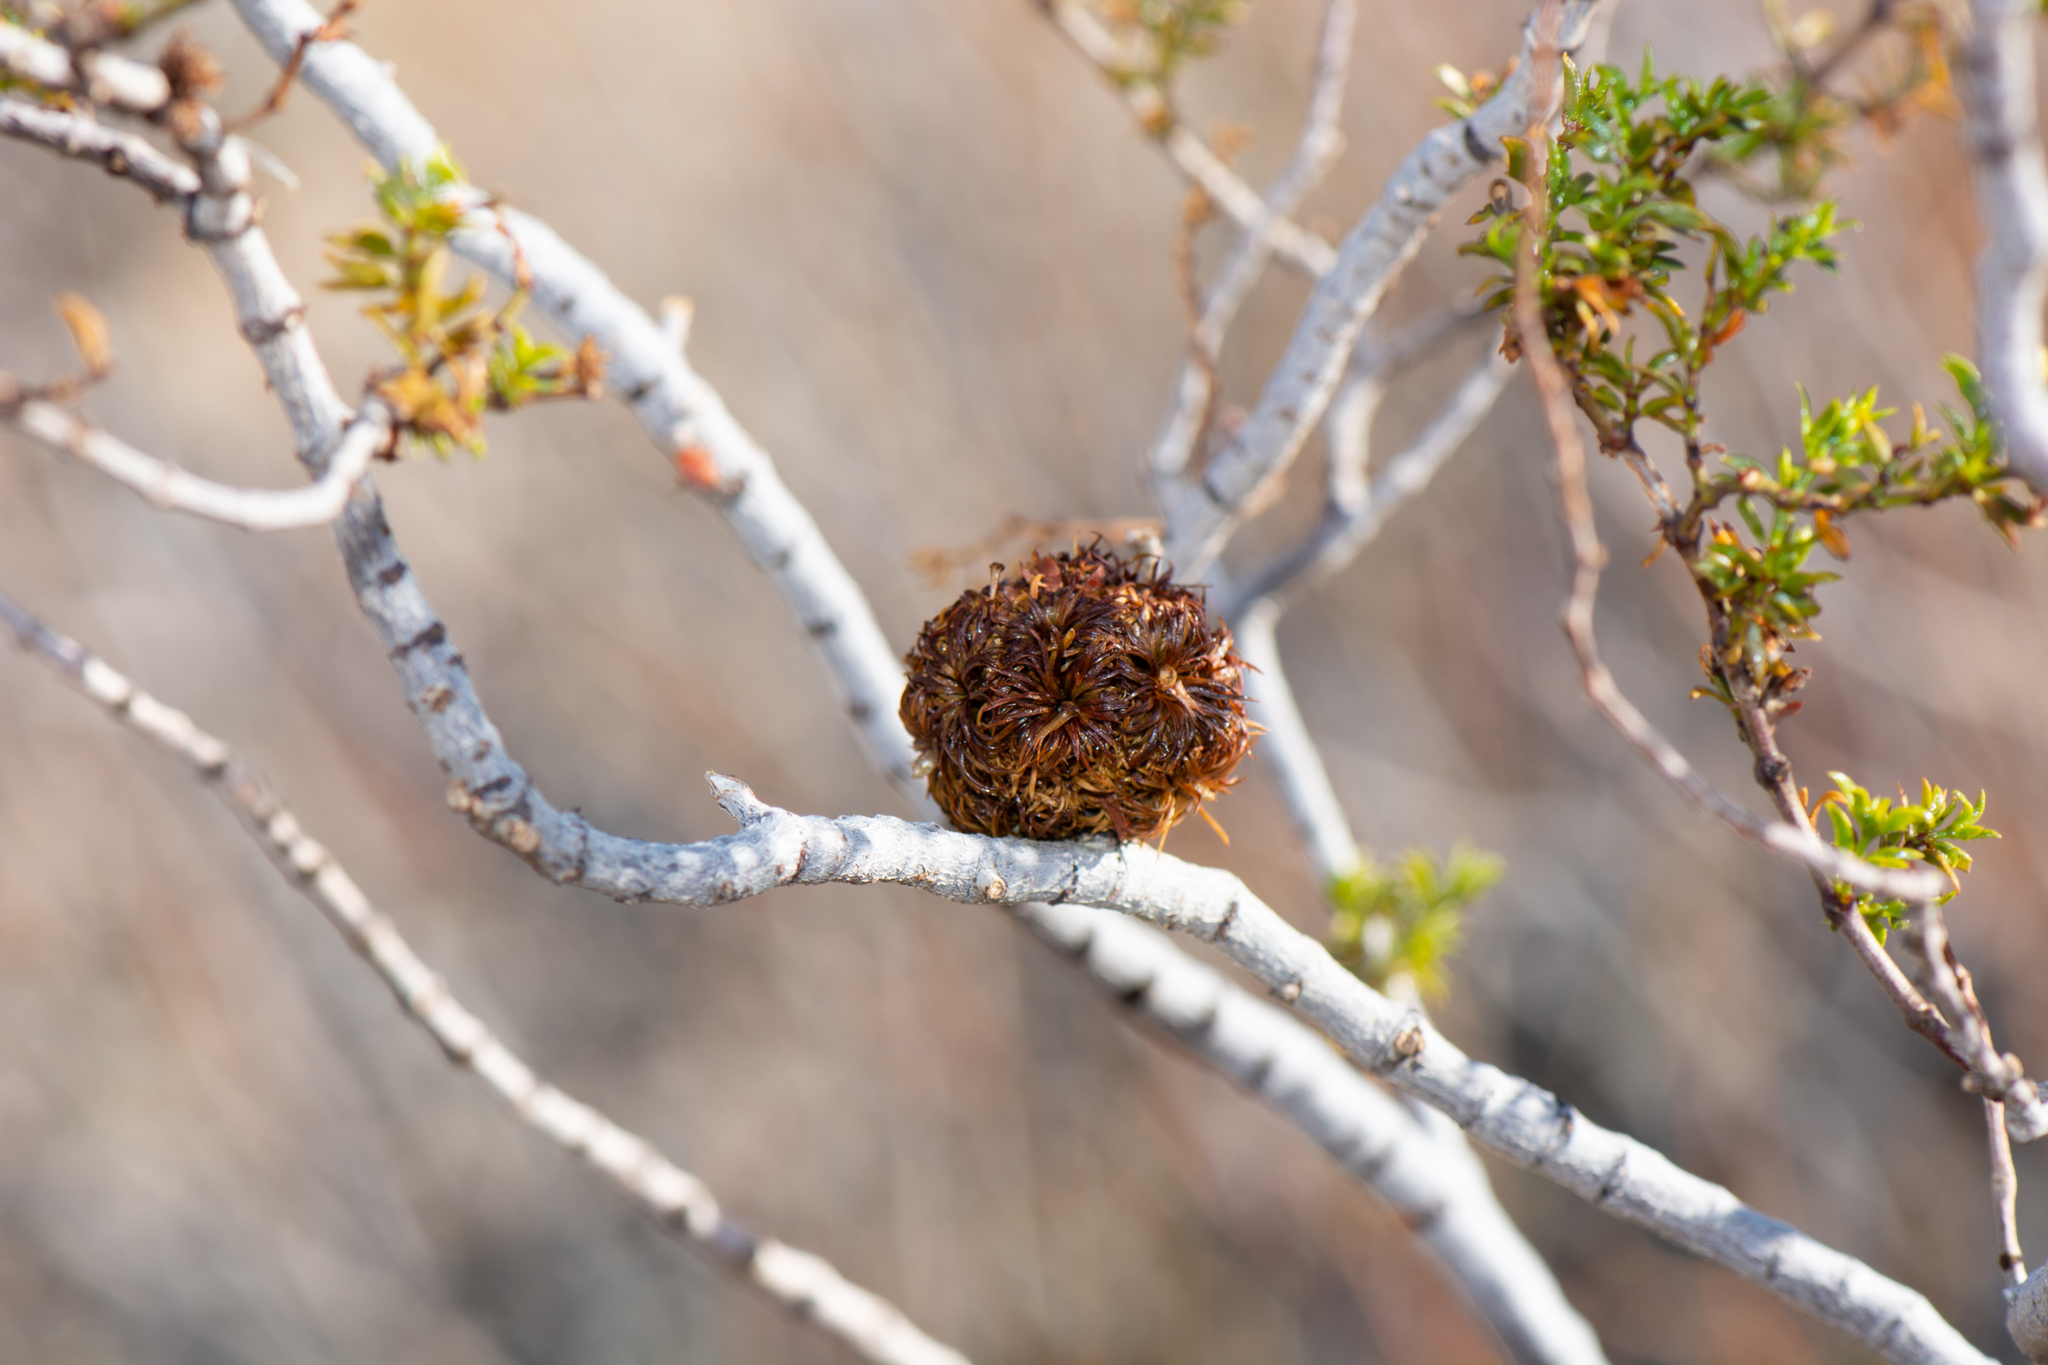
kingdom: Animalia
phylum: Arthropoda
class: Insecta
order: Diptera
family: Cecidomyiidae
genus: Asphondylia
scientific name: Asphondylia auripila
